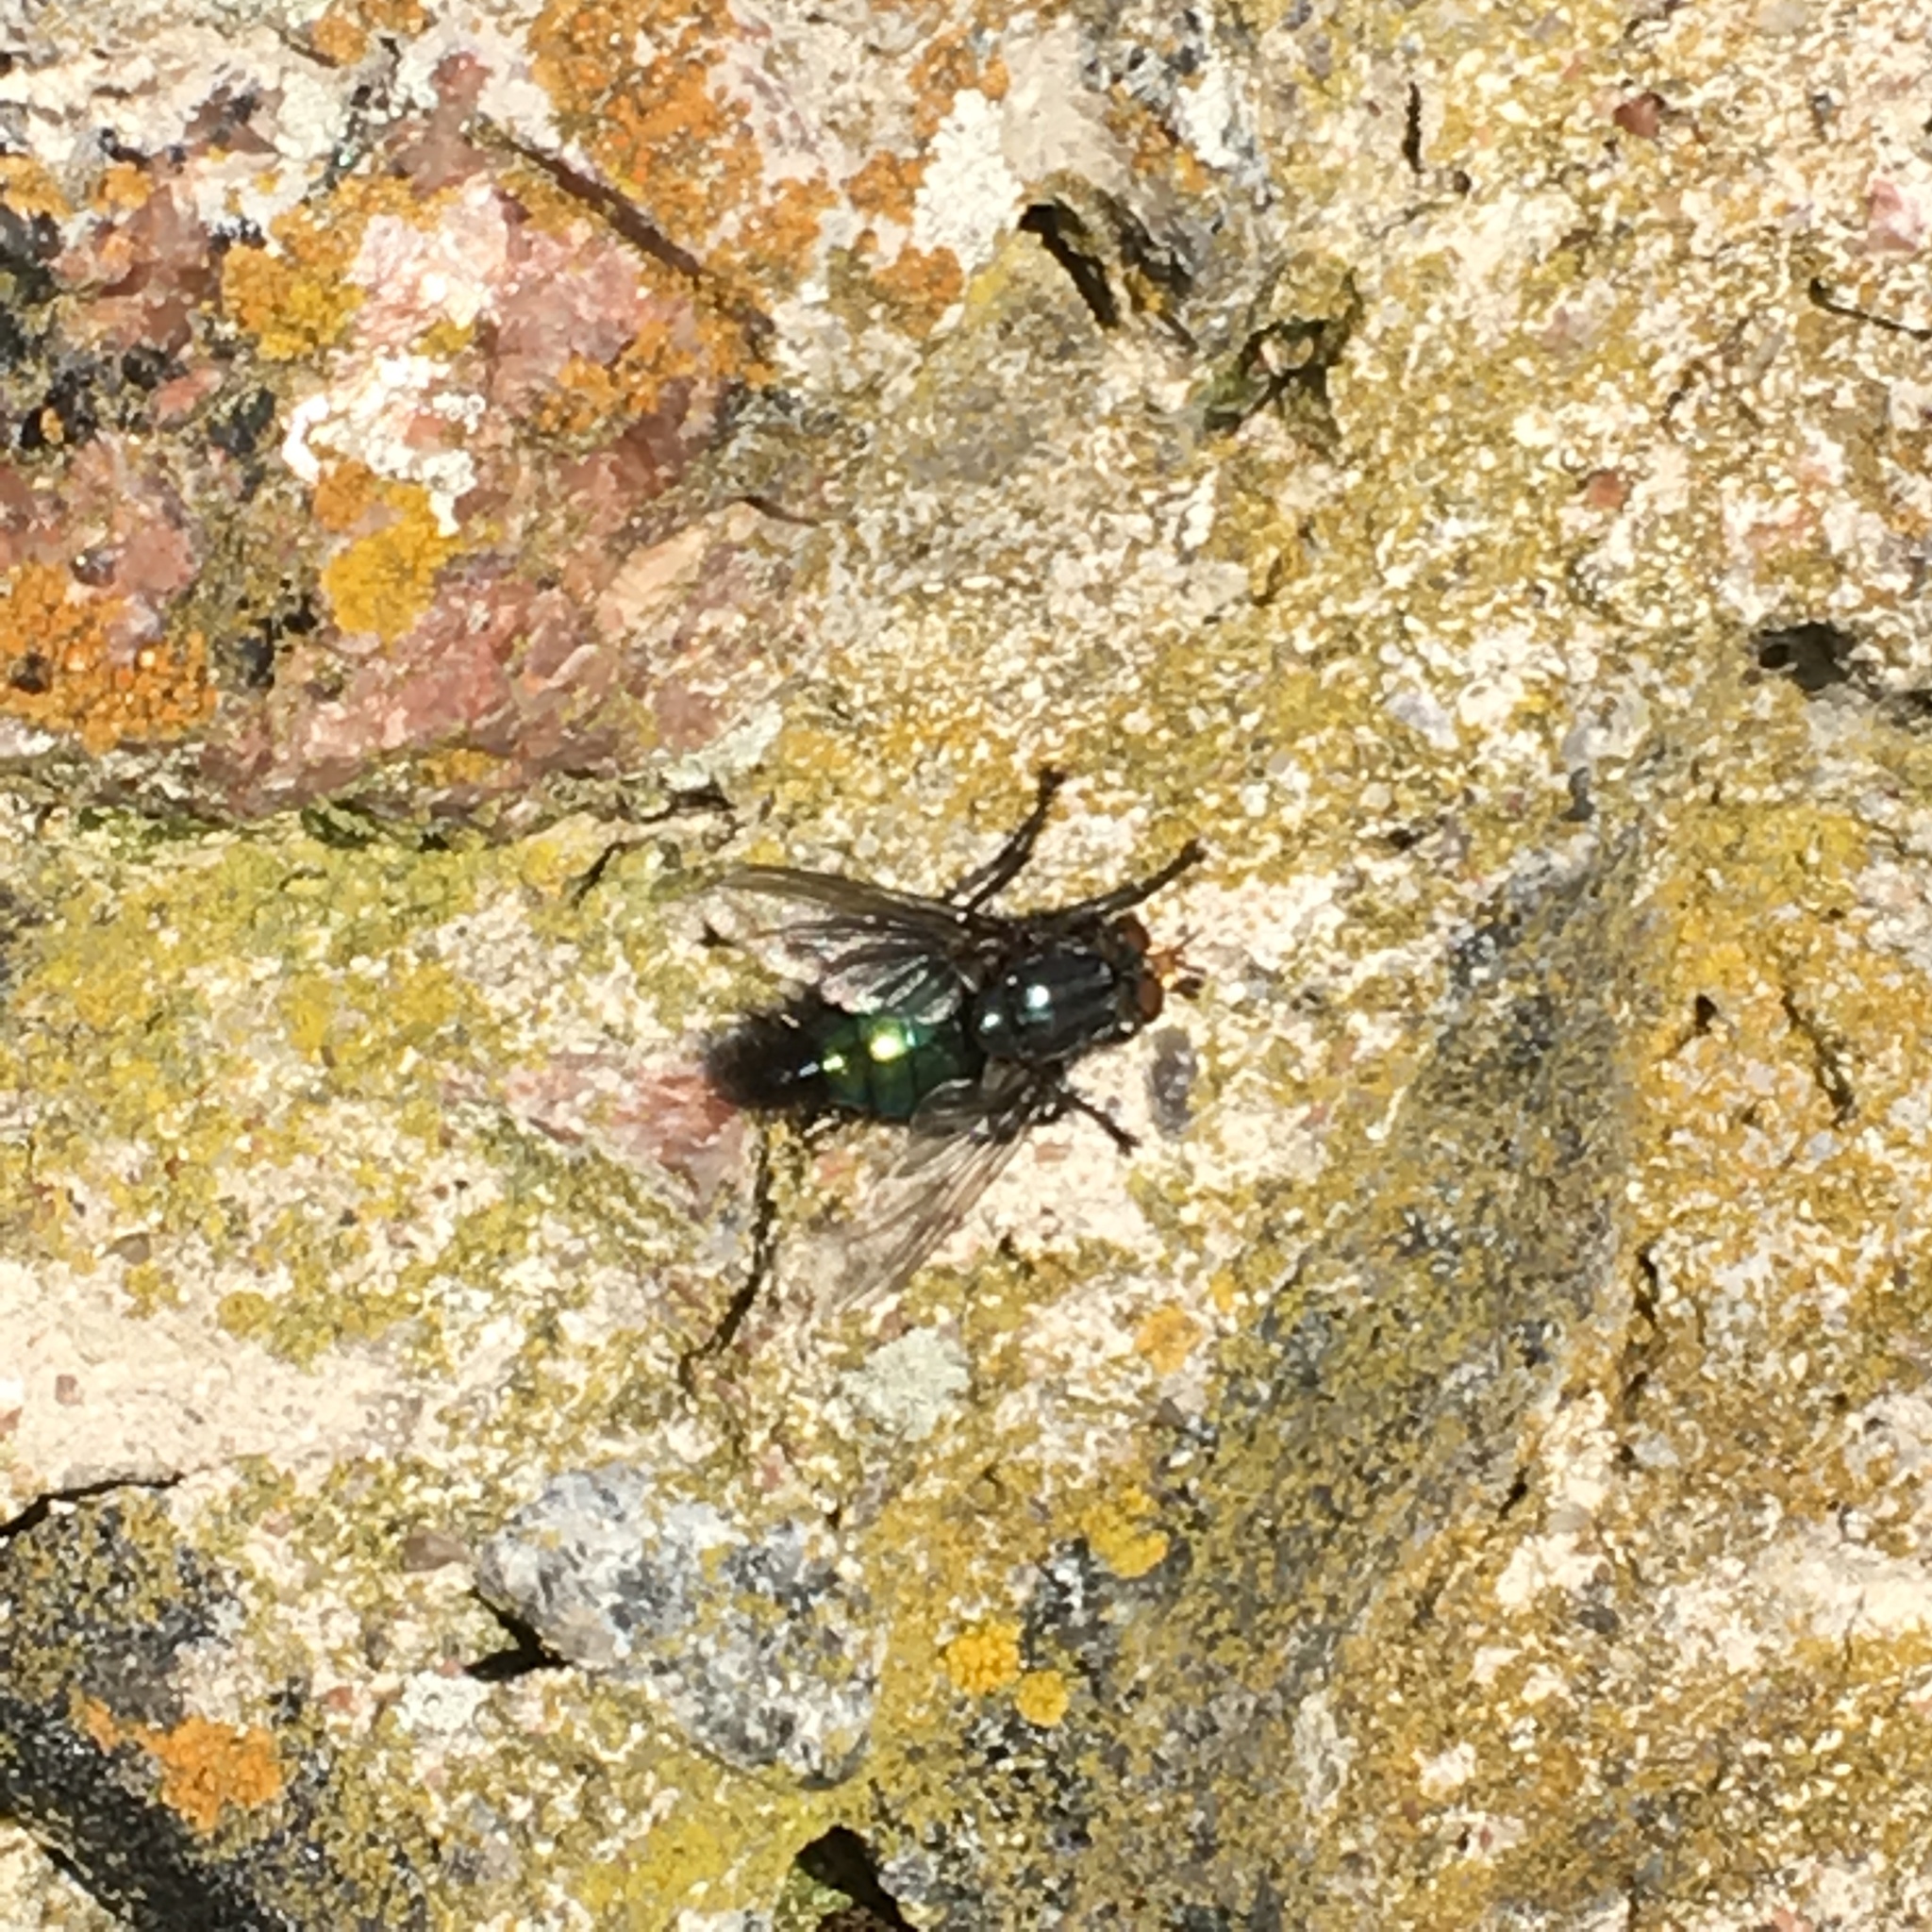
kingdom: Animalia
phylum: Arthropoda
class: Insecta
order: Diptera
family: Calliphoridae
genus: Cynomya
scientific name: Cynomya mortuorum
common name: Bluebottle blow fly
